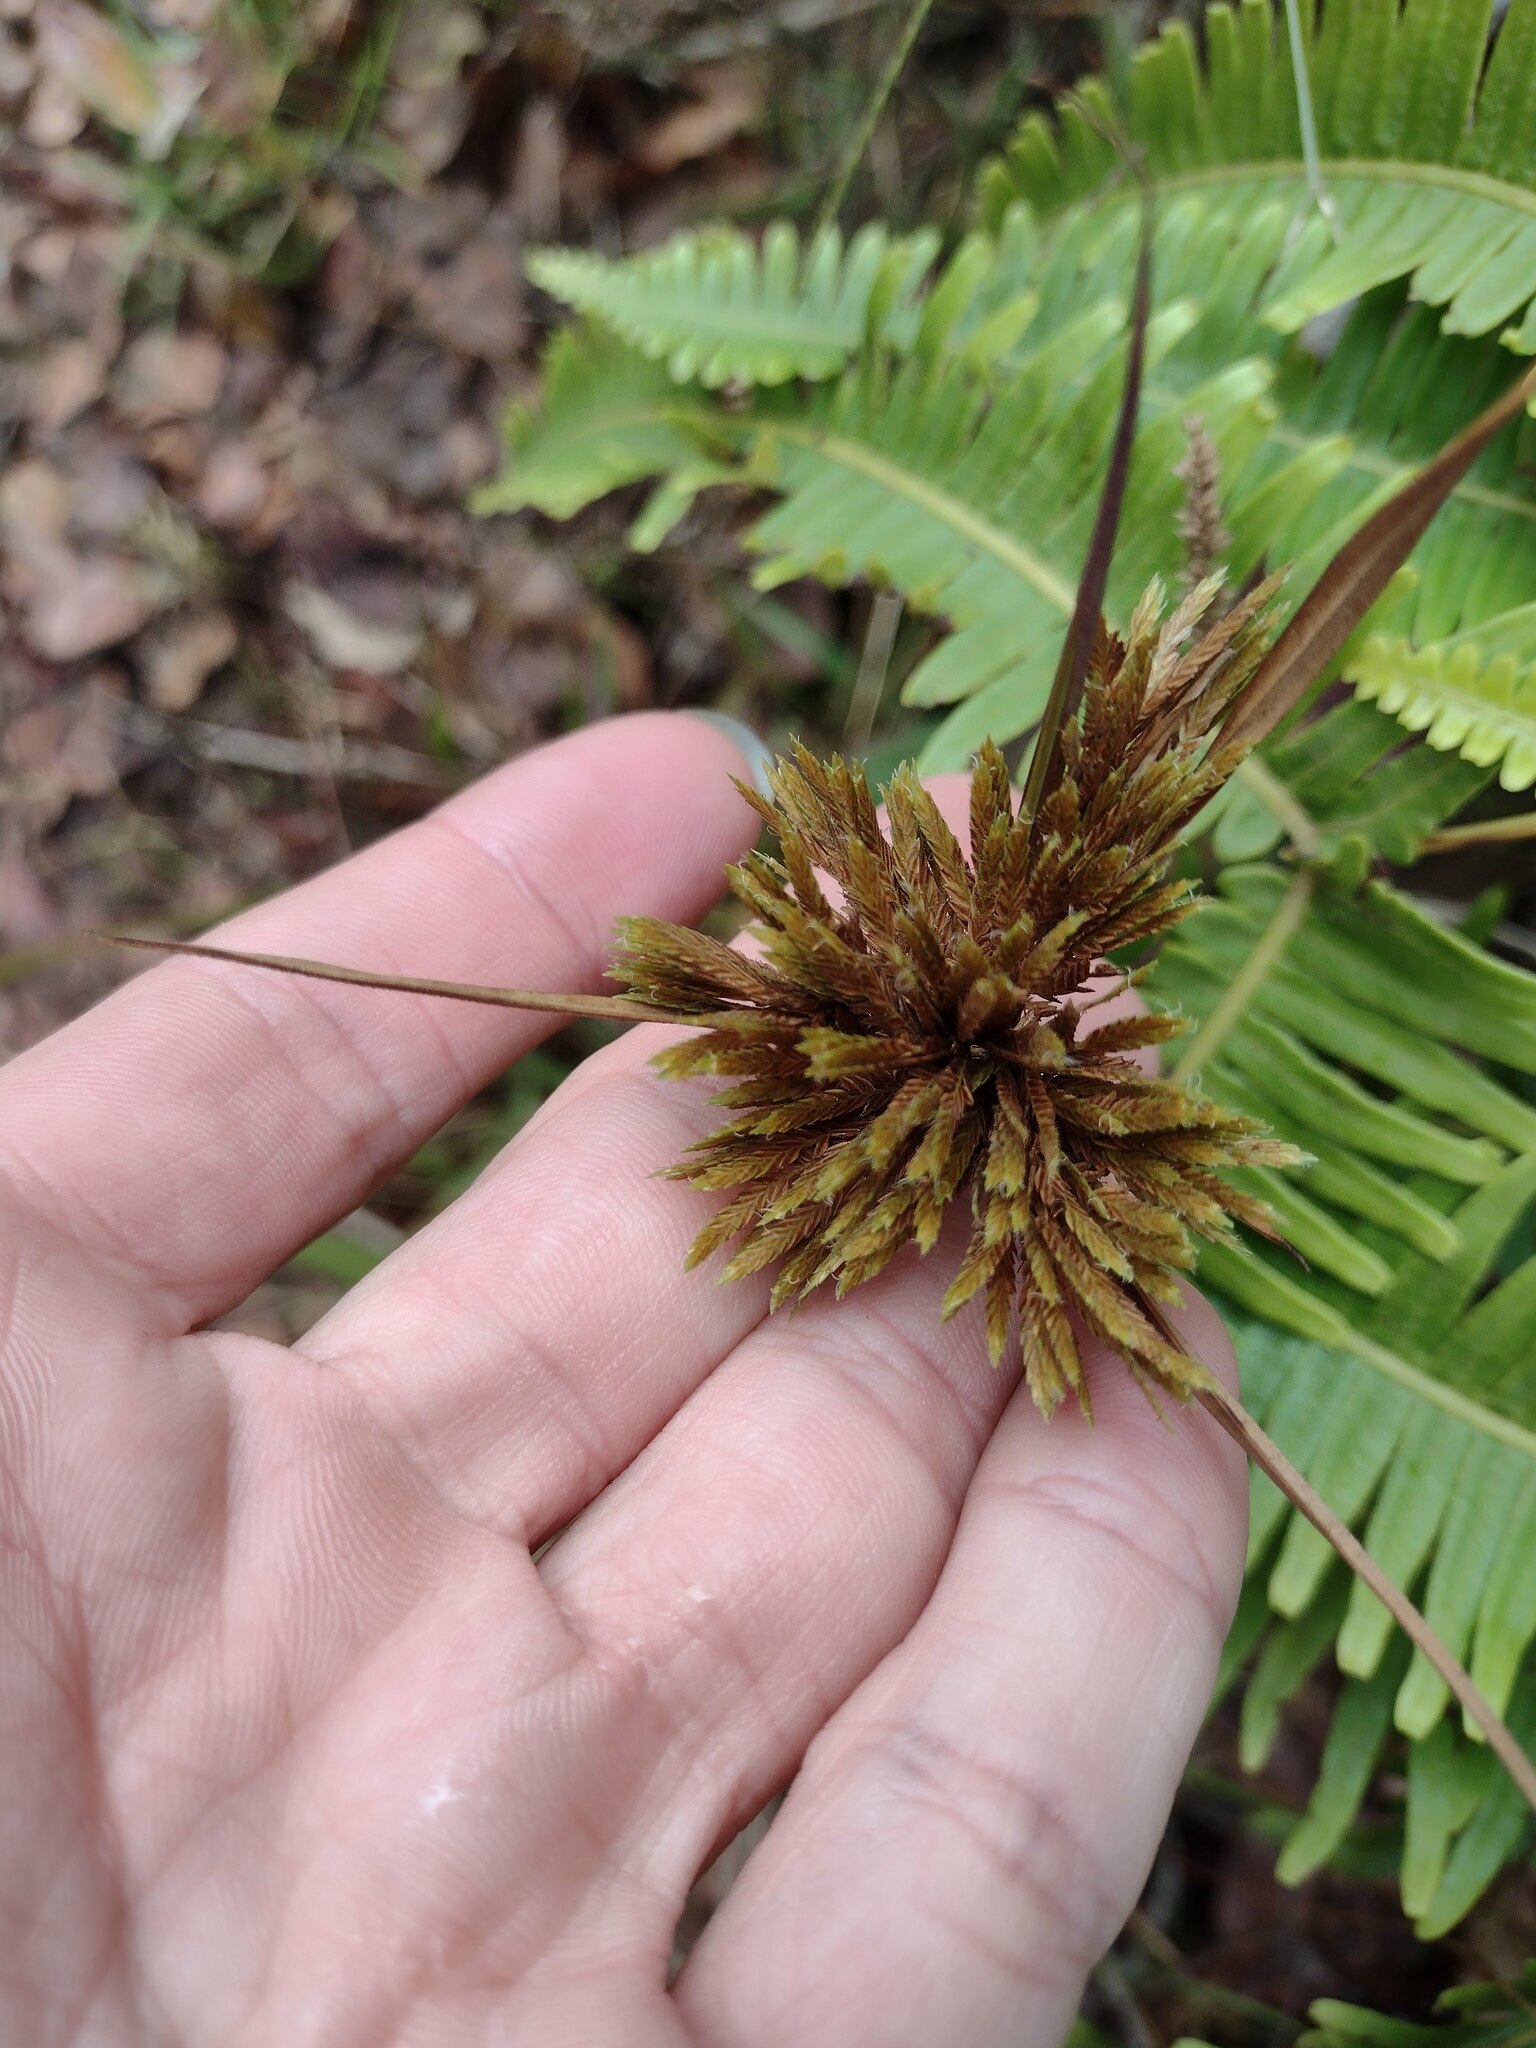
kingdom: Plantae
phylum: Tracheophyta
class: Liliopsida
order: Poales
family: Cyperaceae
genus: Cyperus
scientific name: Cyperus polystachyos
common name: Bunchy flat sedge
